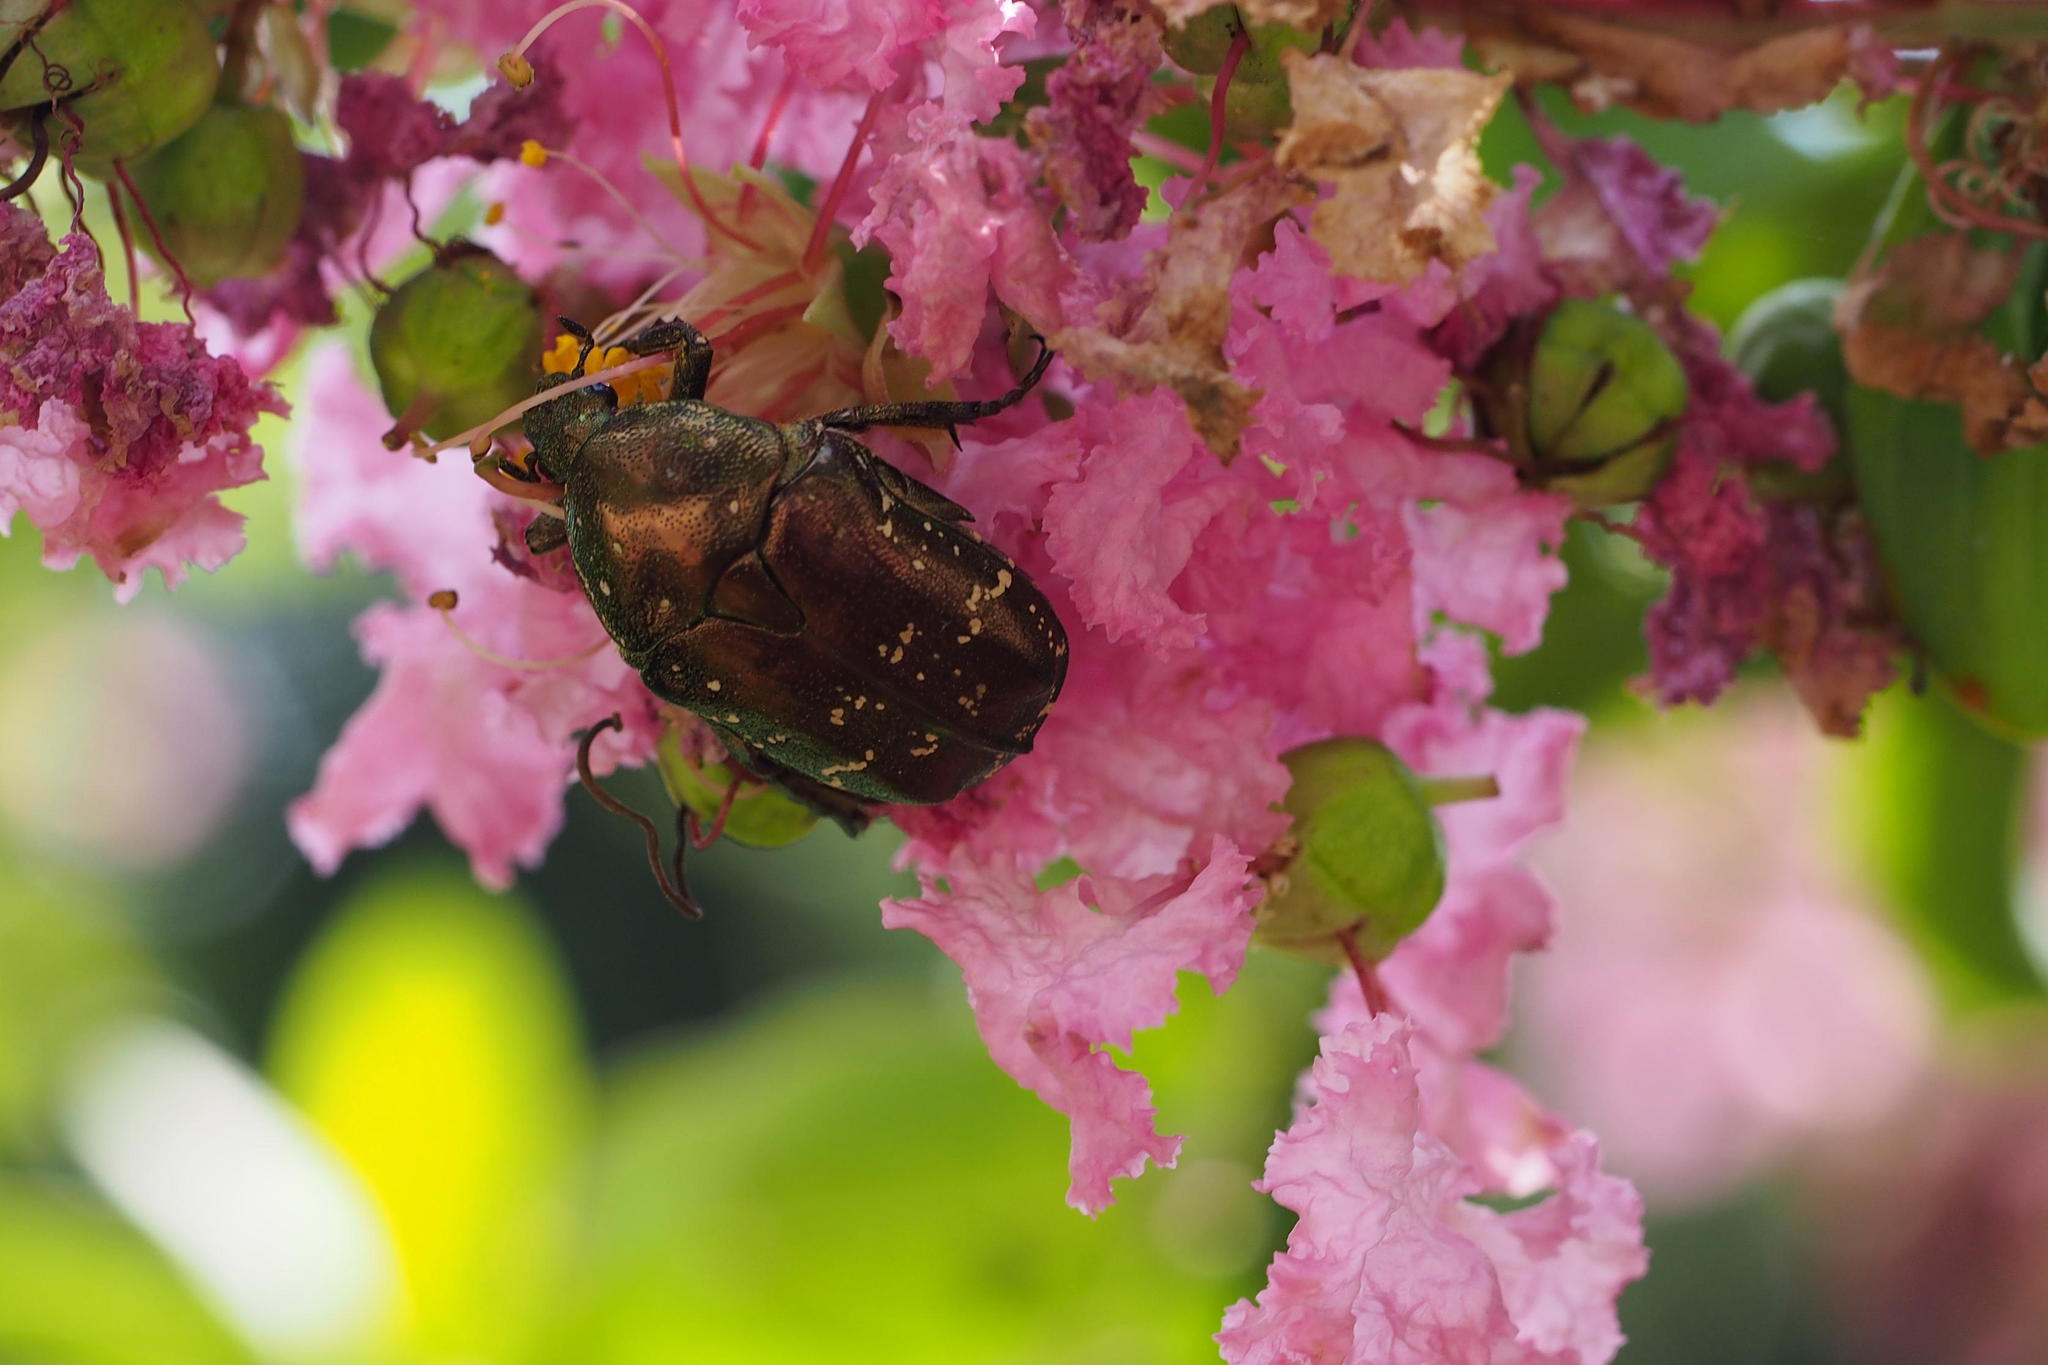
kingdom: Animalia
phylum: Arthropoda
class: Insecta
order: Coleoptera
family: Scarabaeidae
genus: Protaetia
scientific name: Protaetia orientalis
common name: Oriental flower beetle
